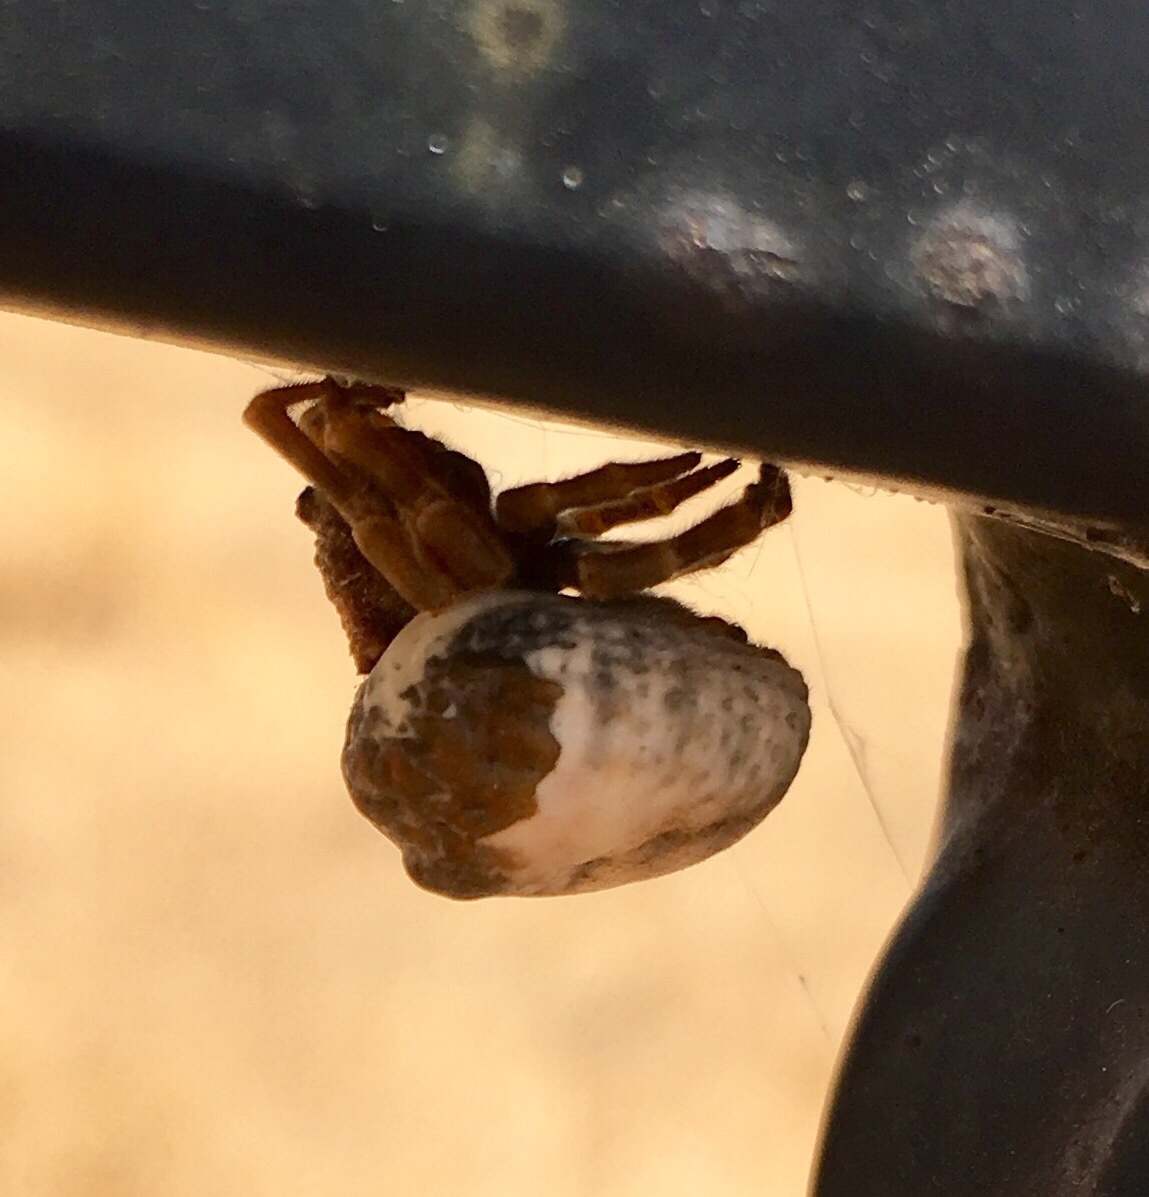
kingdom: Animalia
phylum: Arthropoda
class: Arachnida
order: Araneae
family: Araneidae
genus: Mastophora
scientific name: Mastophora cornigera
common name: Orb weavers
